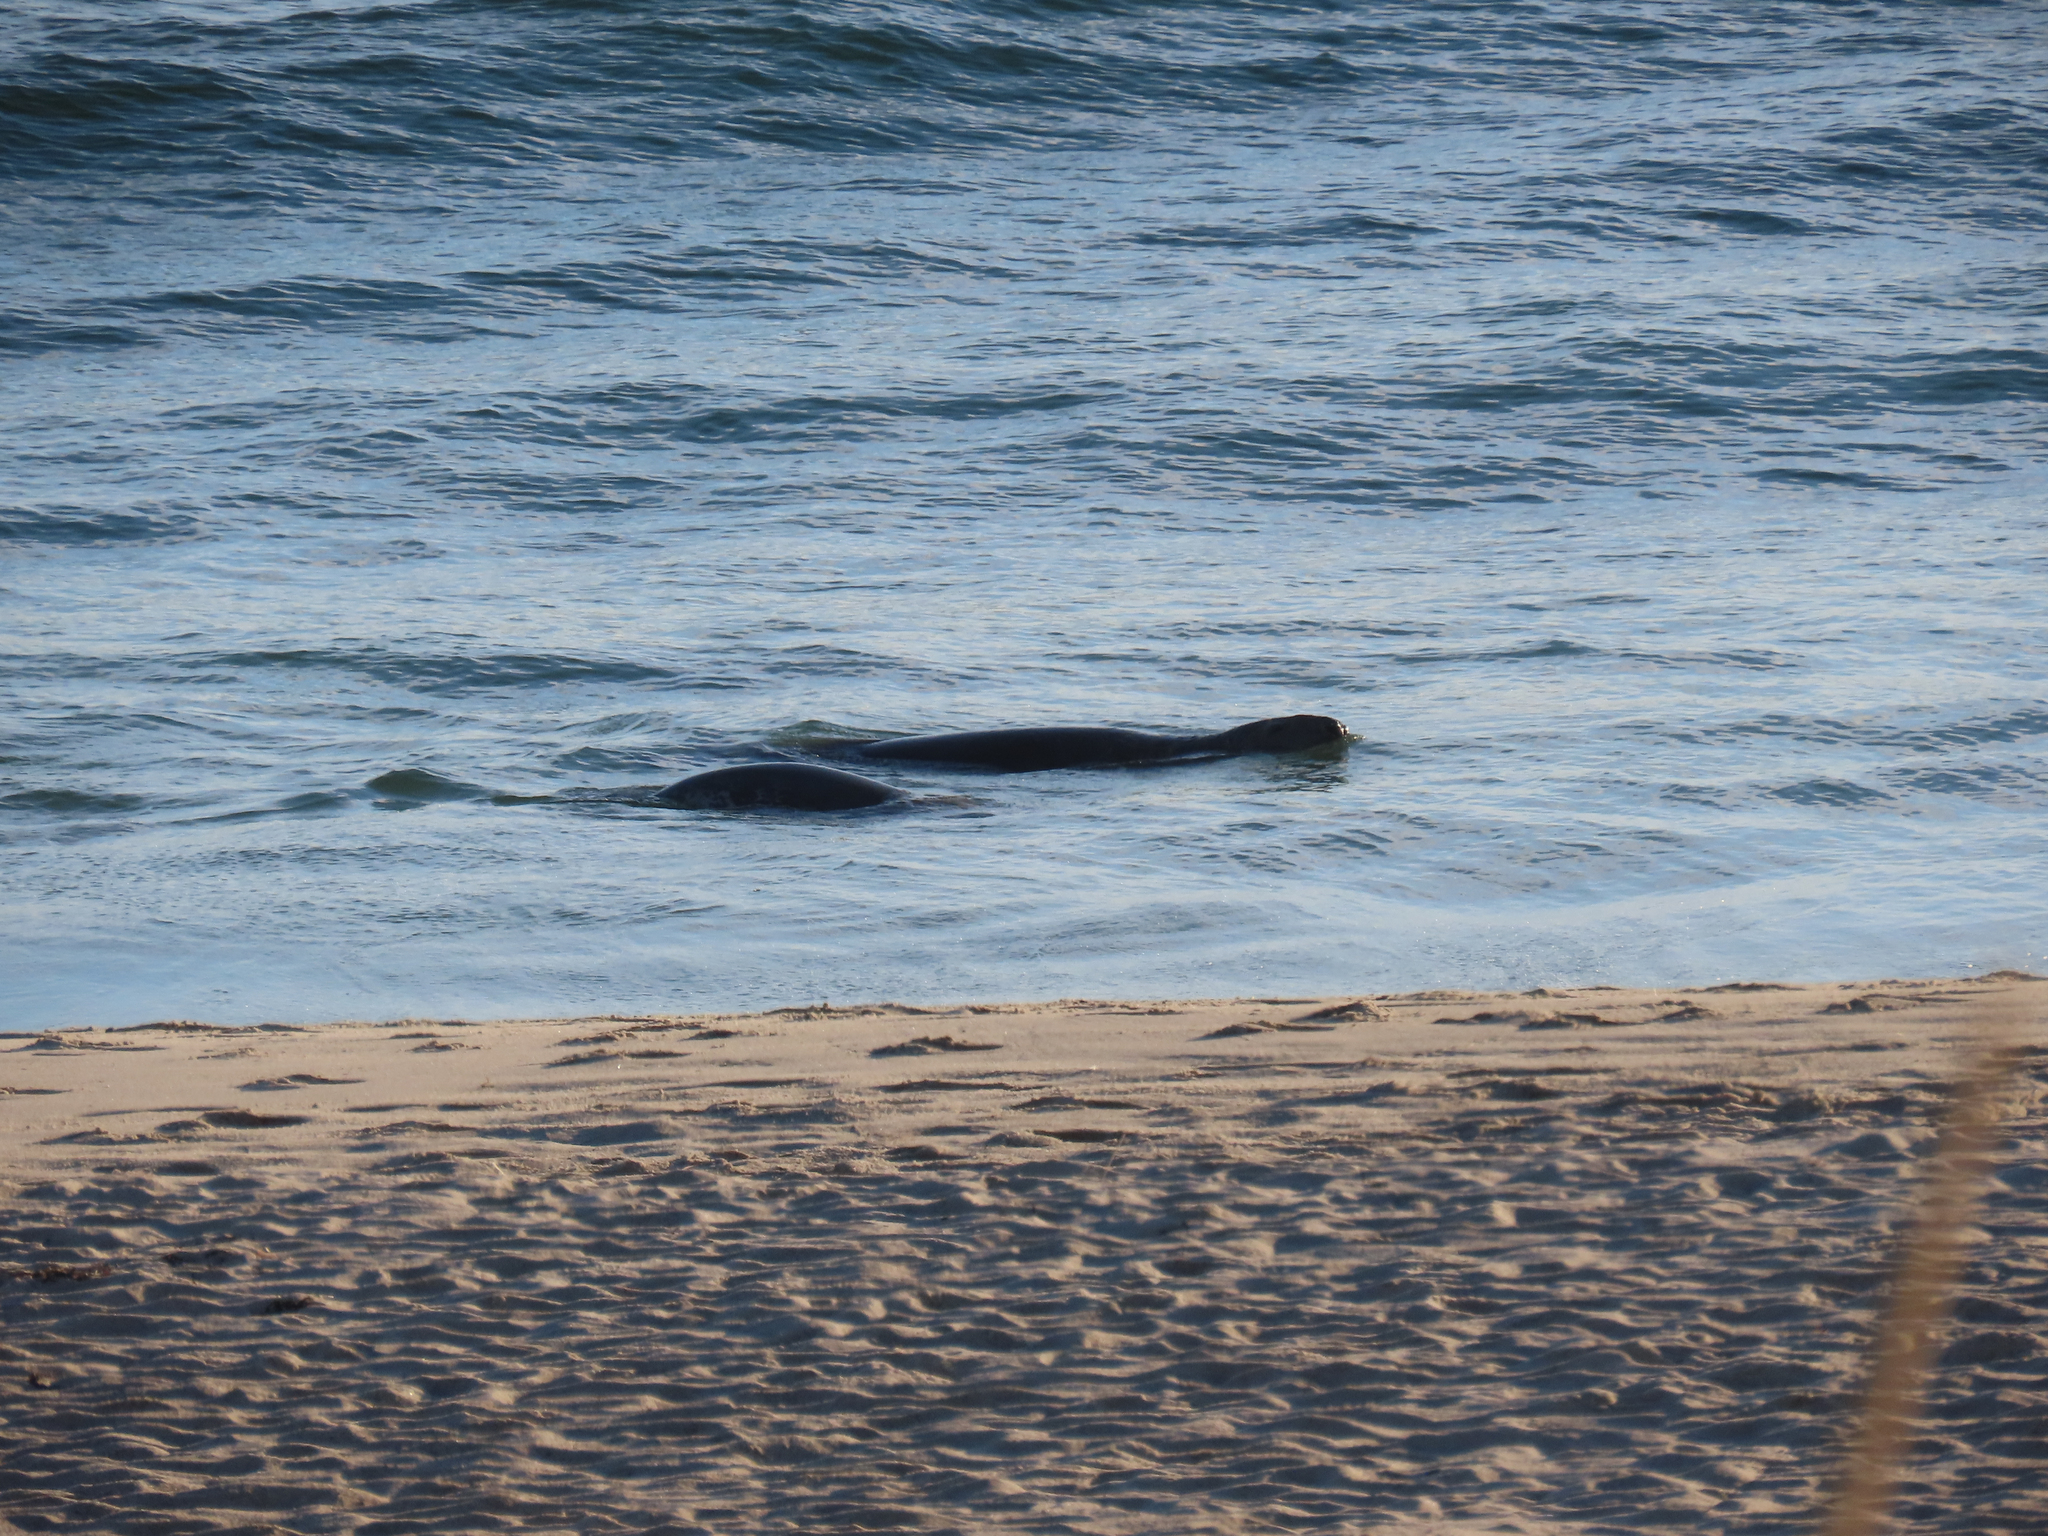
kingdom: Animalia
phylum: Chordata
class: Mammalia
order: Carnivora
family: Phocidae
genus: Halichoerus
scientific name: Halichoerus grypus
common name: Grey seal
